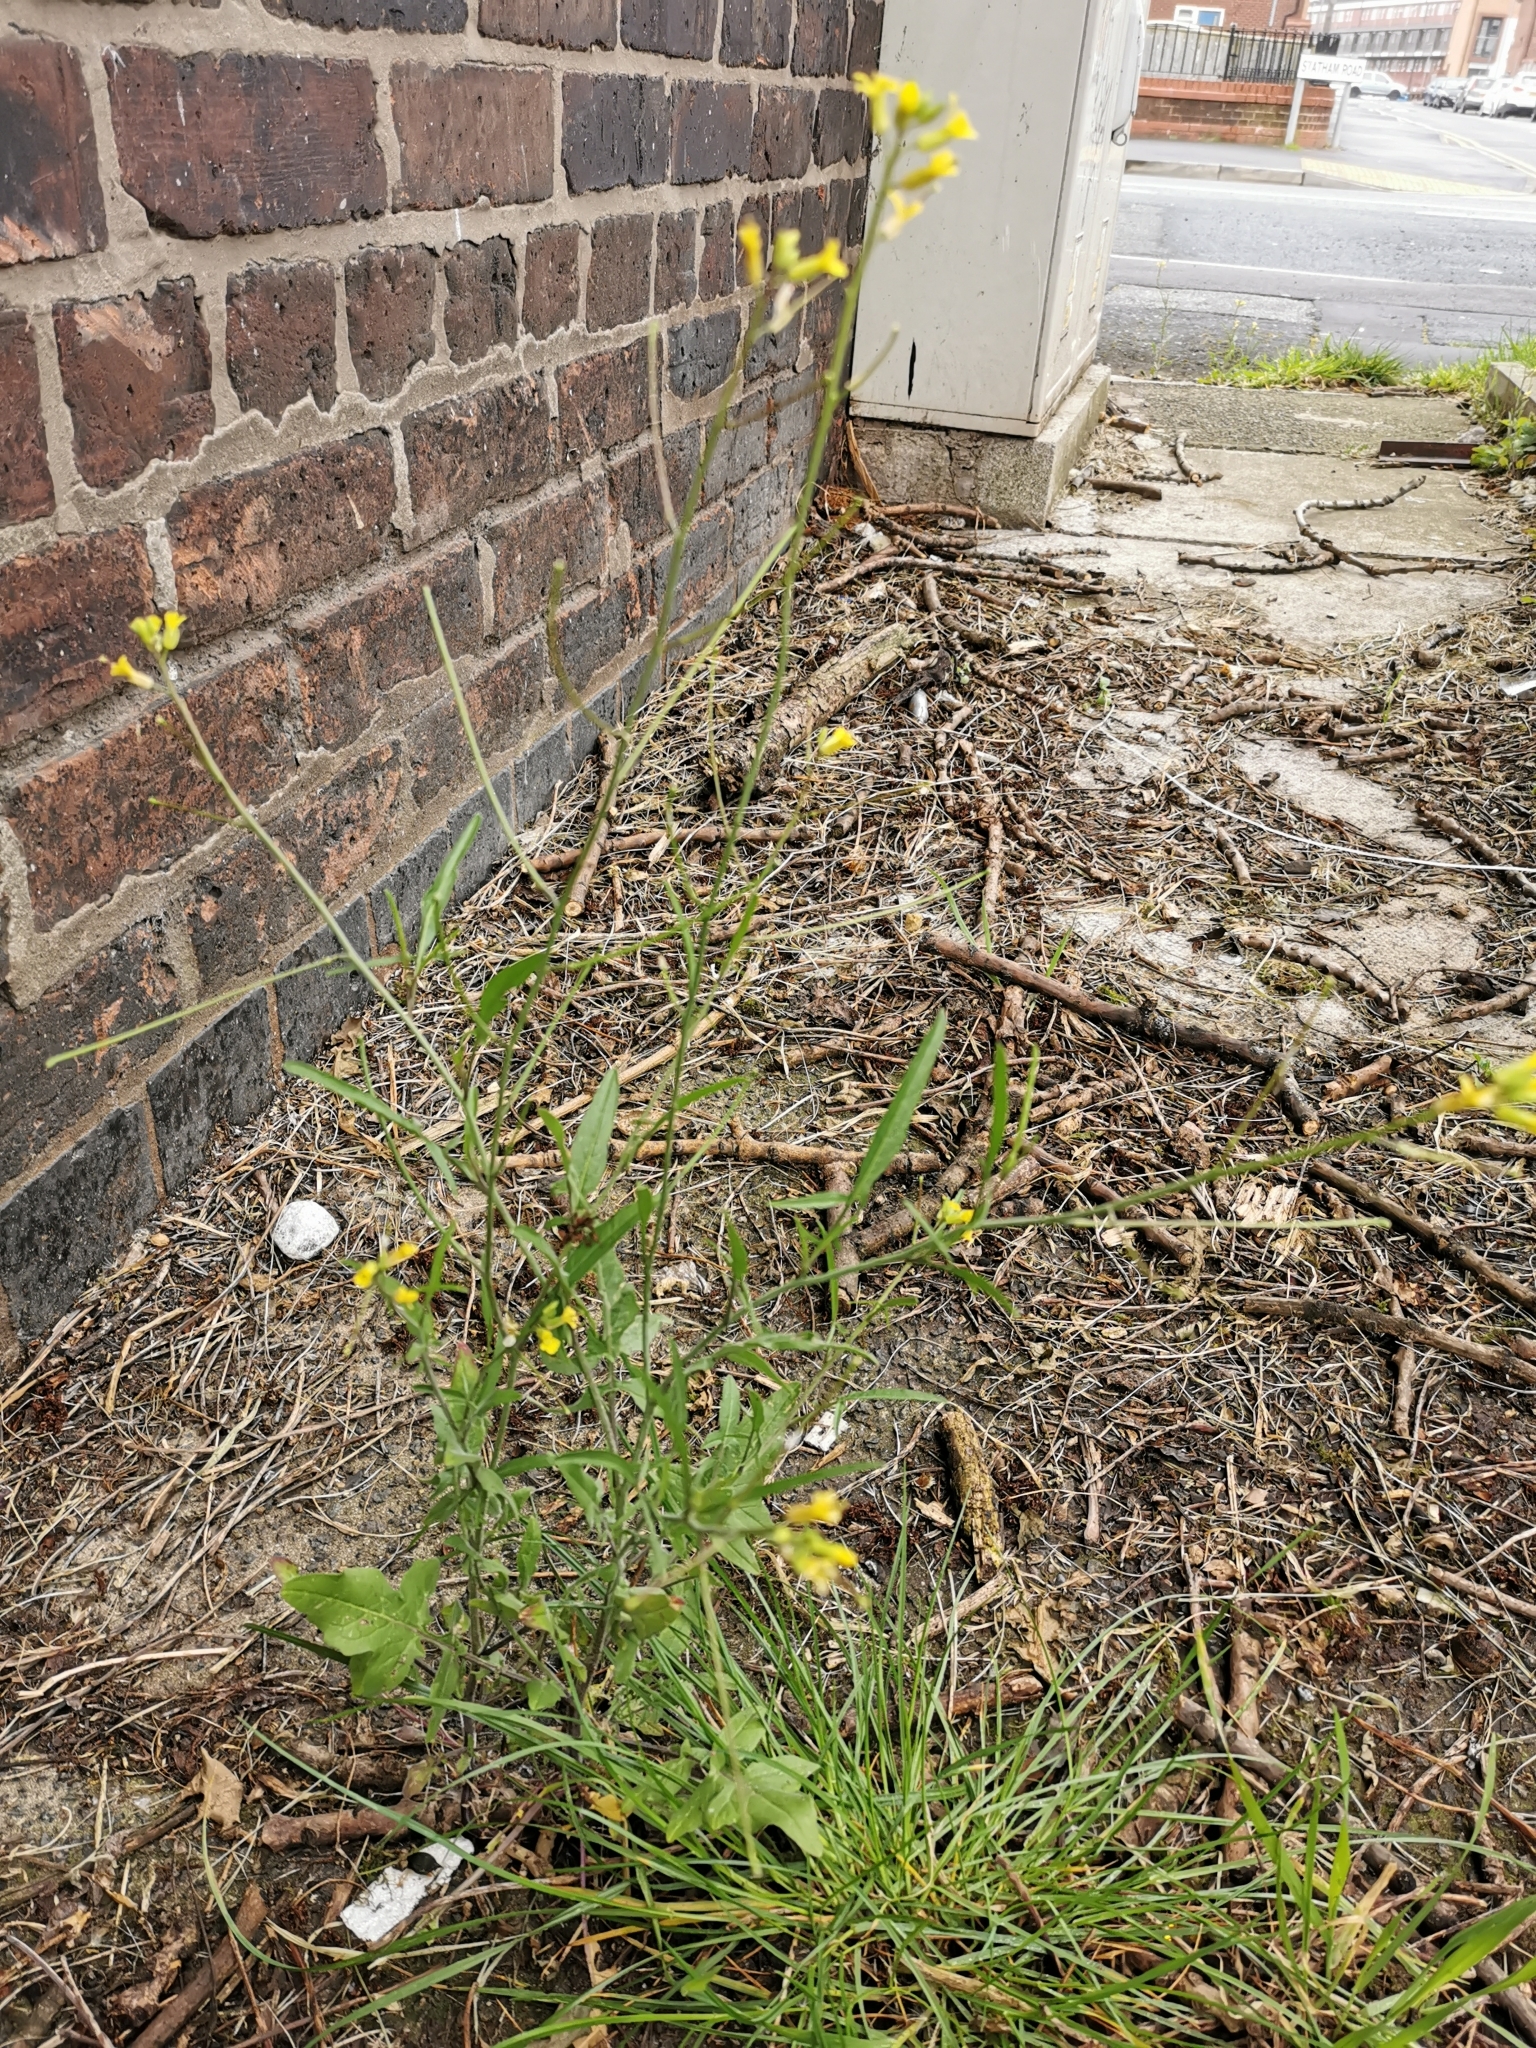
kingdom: Plantae
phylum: Tracheophyta
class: Magnoliopsida
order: Brassicales
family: Brassicaceae
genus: Sisymbrium
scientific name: Sisymbrium orientale
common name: Eastern rocket
